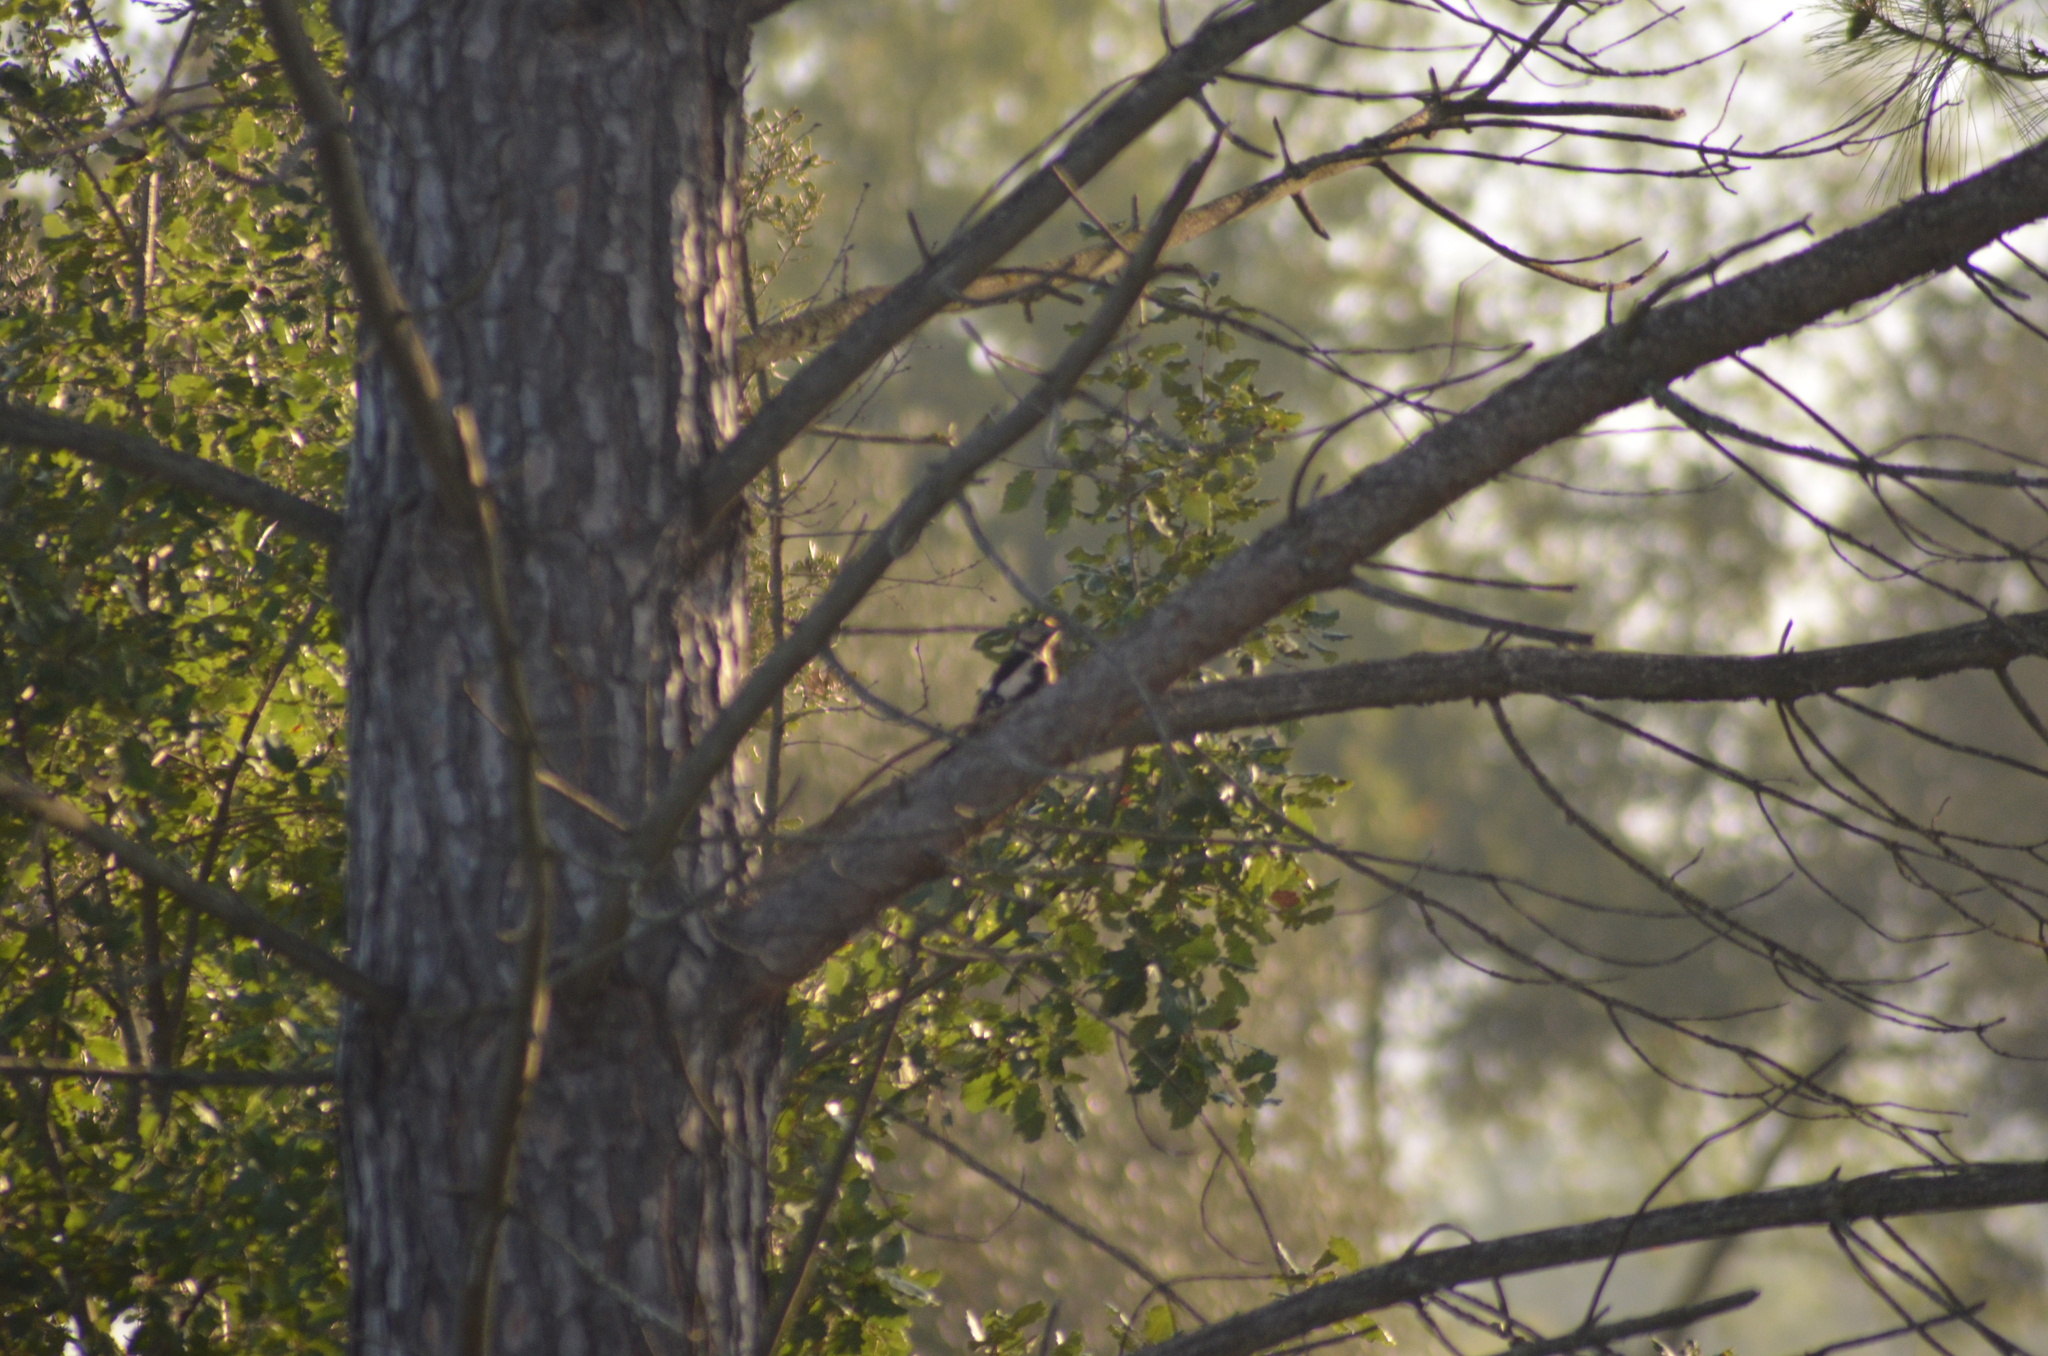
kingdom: Animalia
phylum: Chordata
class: Aves
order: Piciformes
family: Picidae
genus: Dendrocopos
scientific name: Dendrocopos major
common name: Great spotted woodpecker
